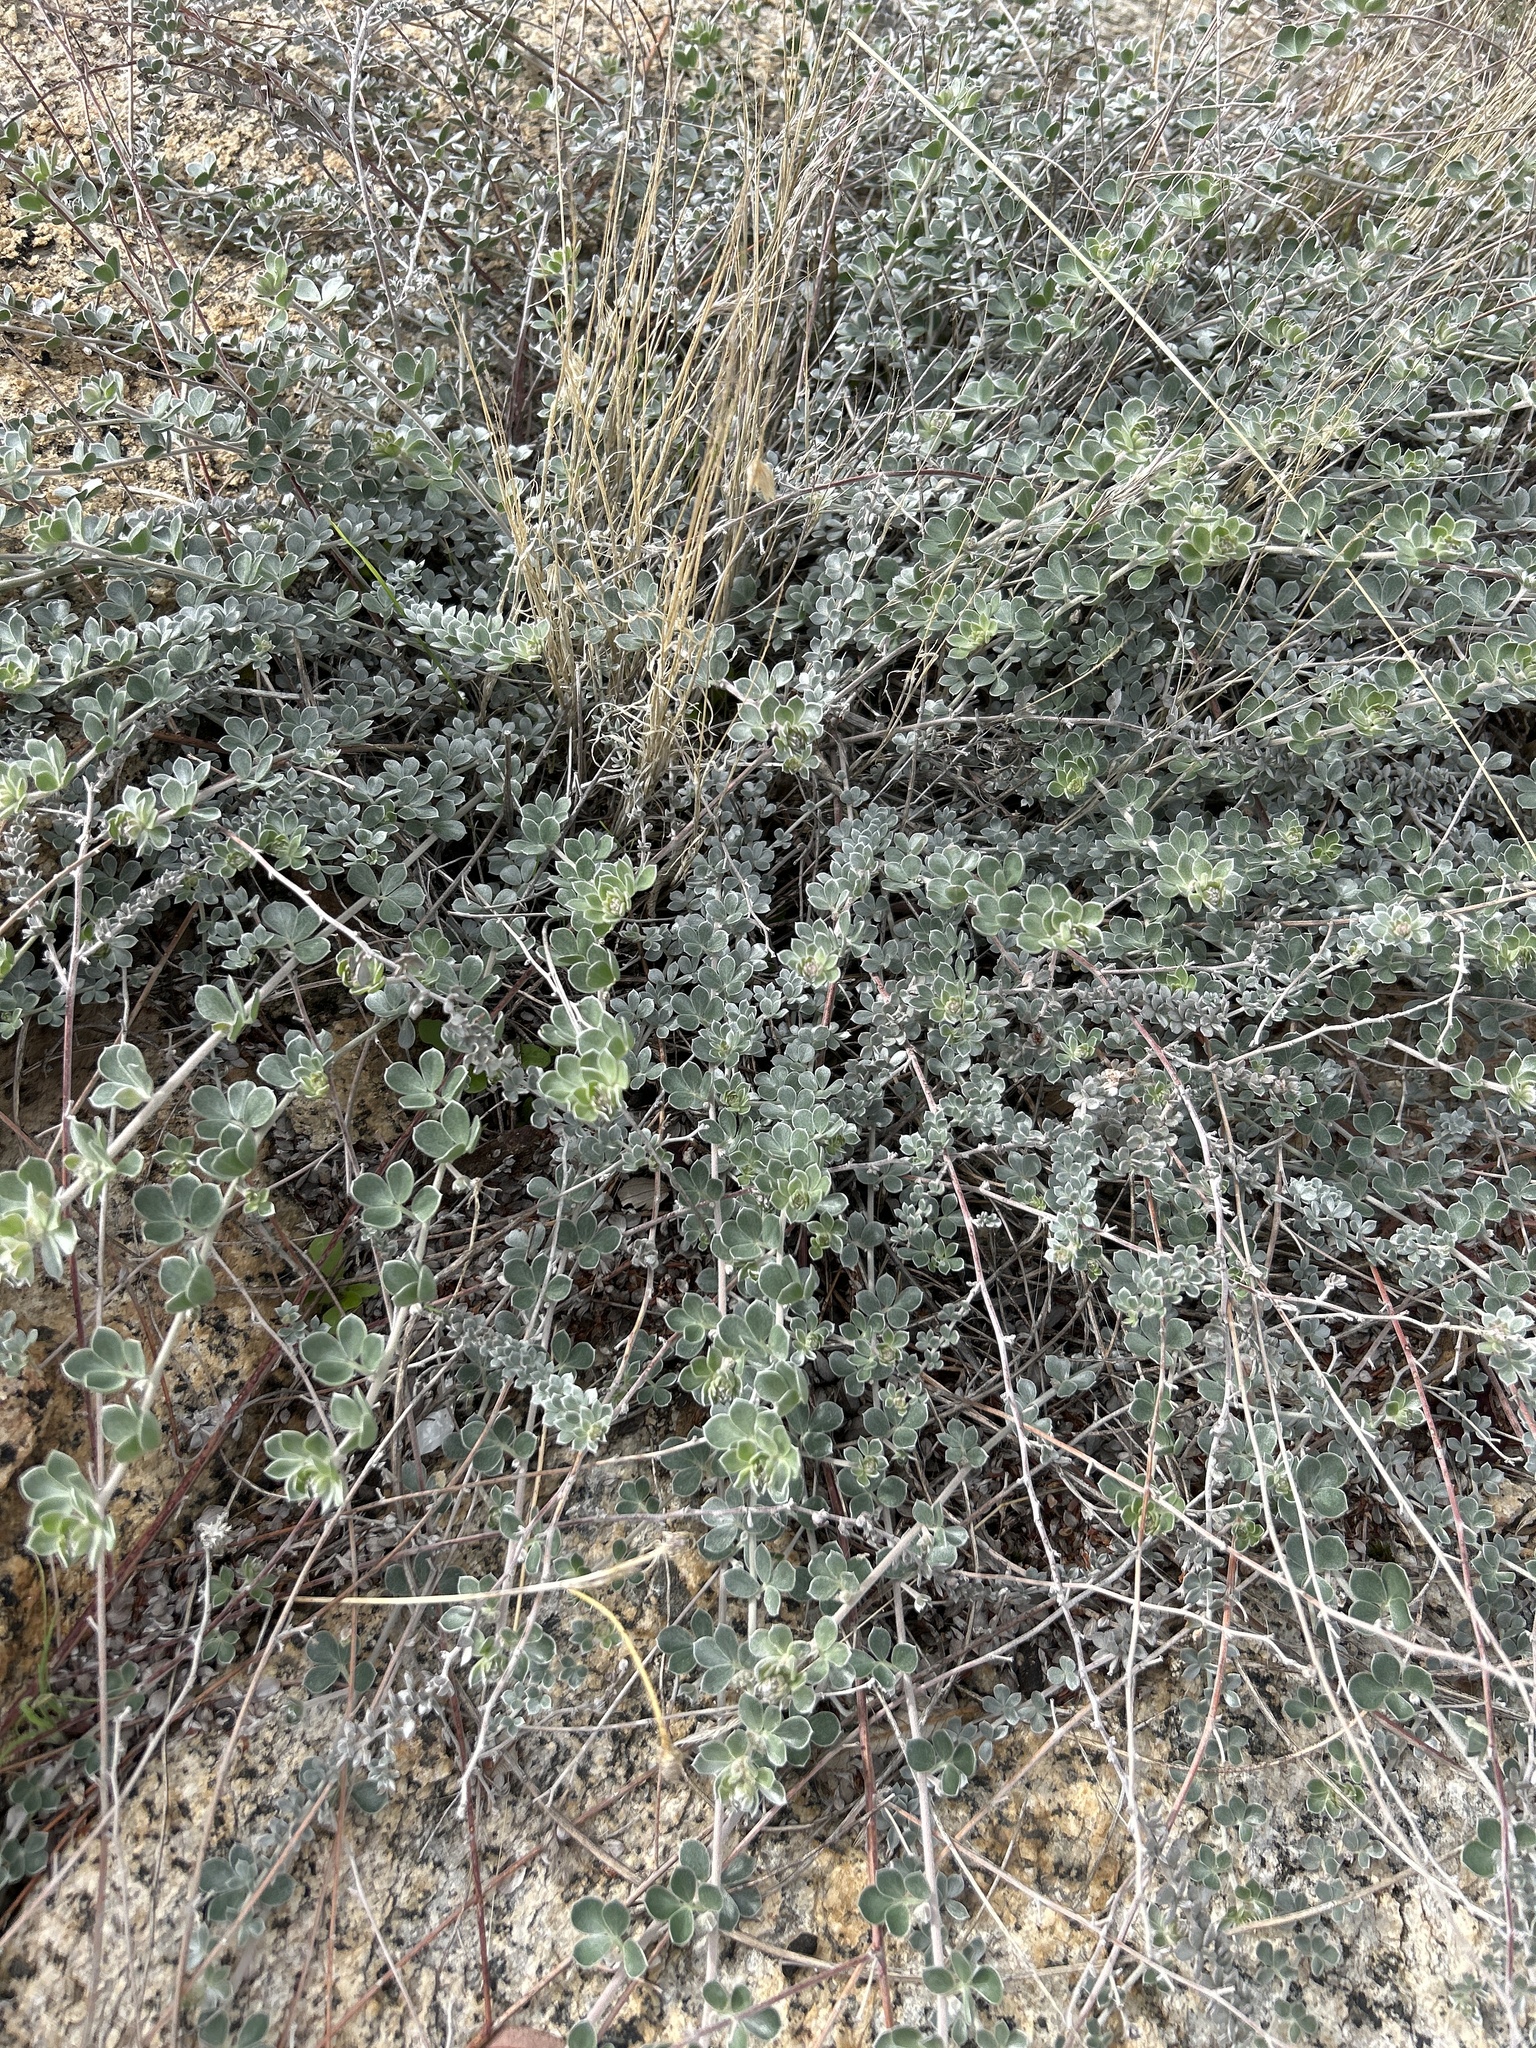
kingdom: Plantae
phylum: Tracheophyta
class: Magnoliopsida
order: Fabales
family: Fabaceae
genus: Acmispon
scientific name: Acmispon argophyllus
